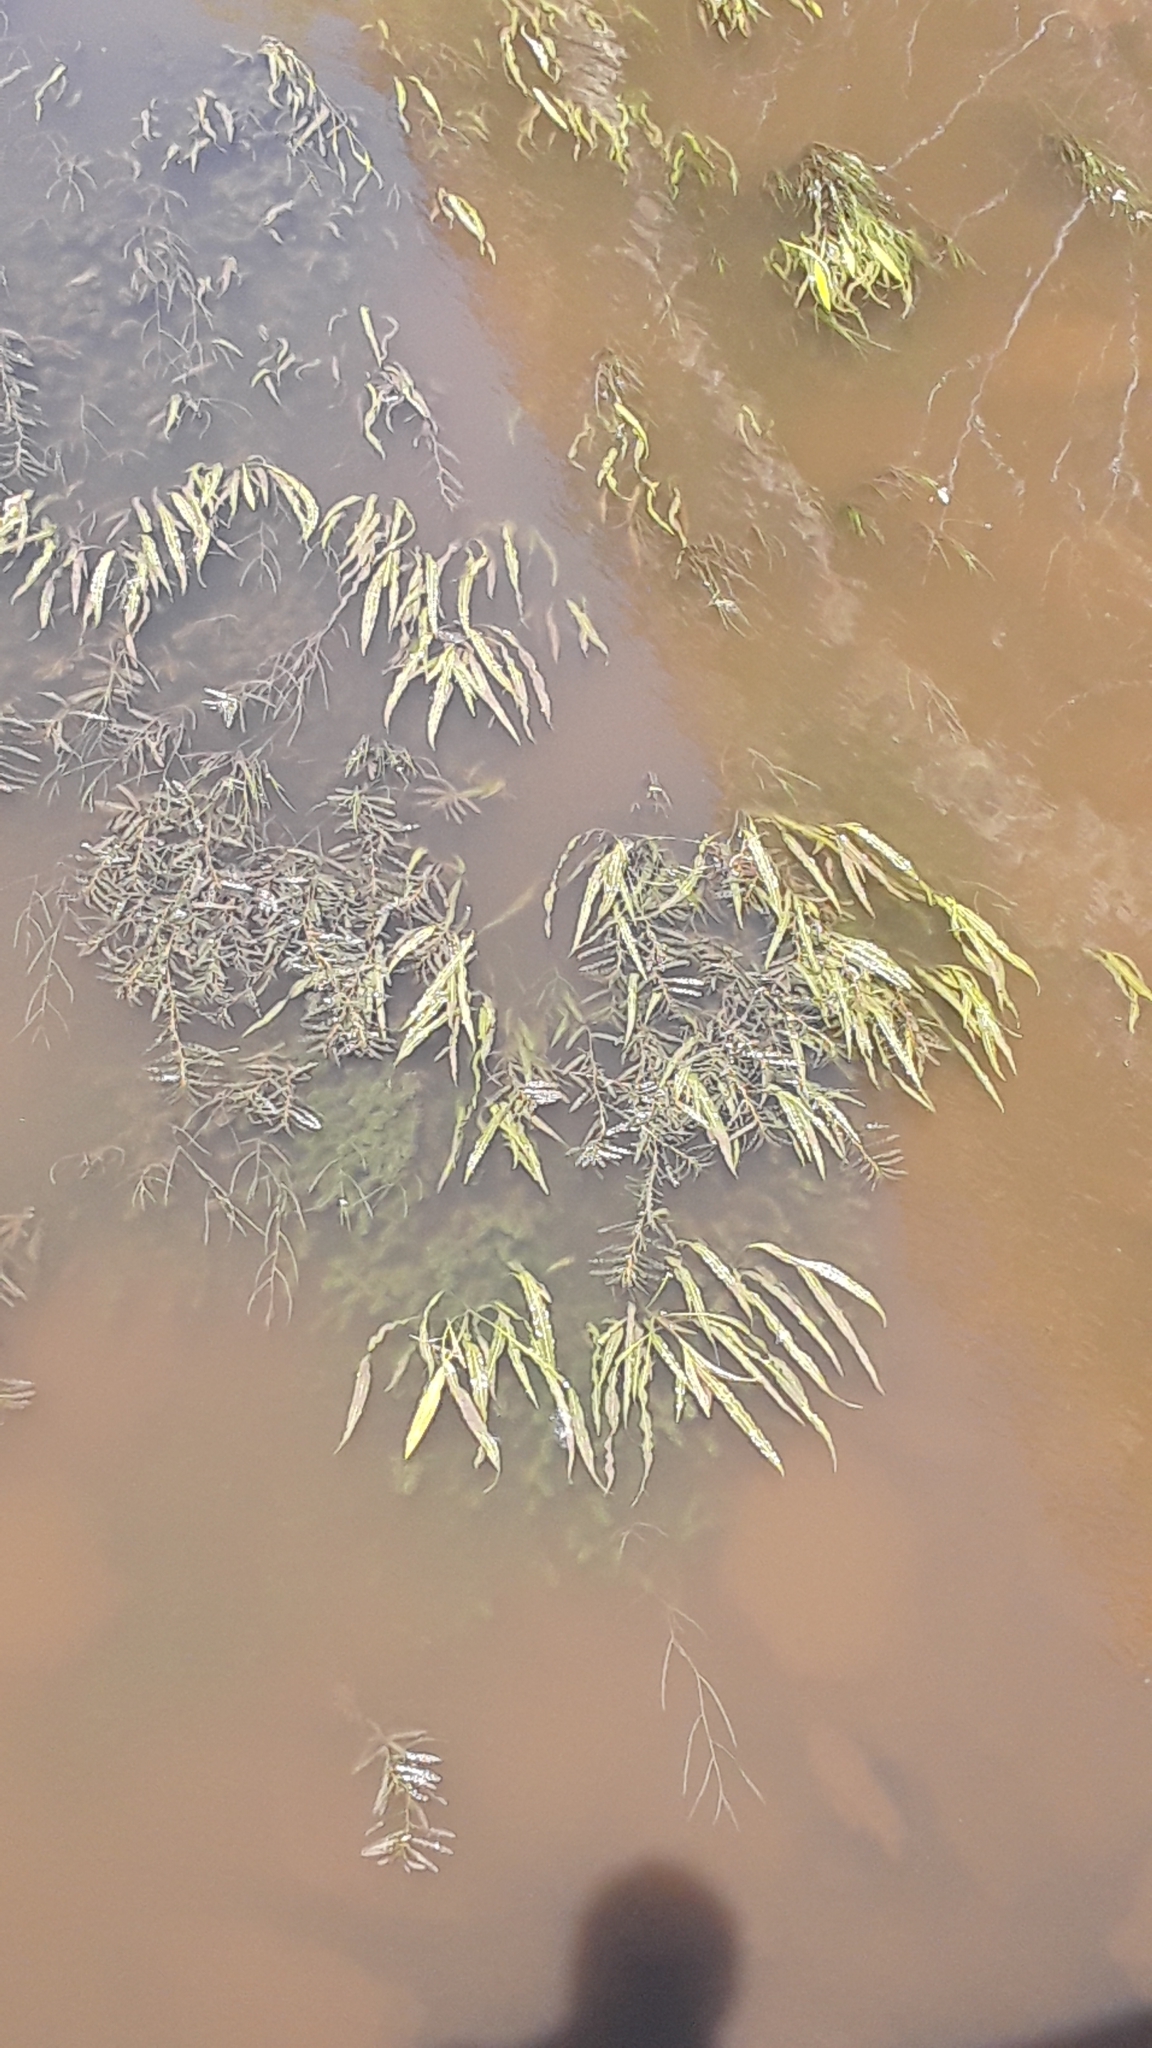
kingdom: Plantae
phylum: Tracheophyta
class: Liliopsida
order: Alismatales
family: Potamogetonaceae
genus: Potamogeton
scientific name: Potamogeton crispus
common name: Curled pondweed
